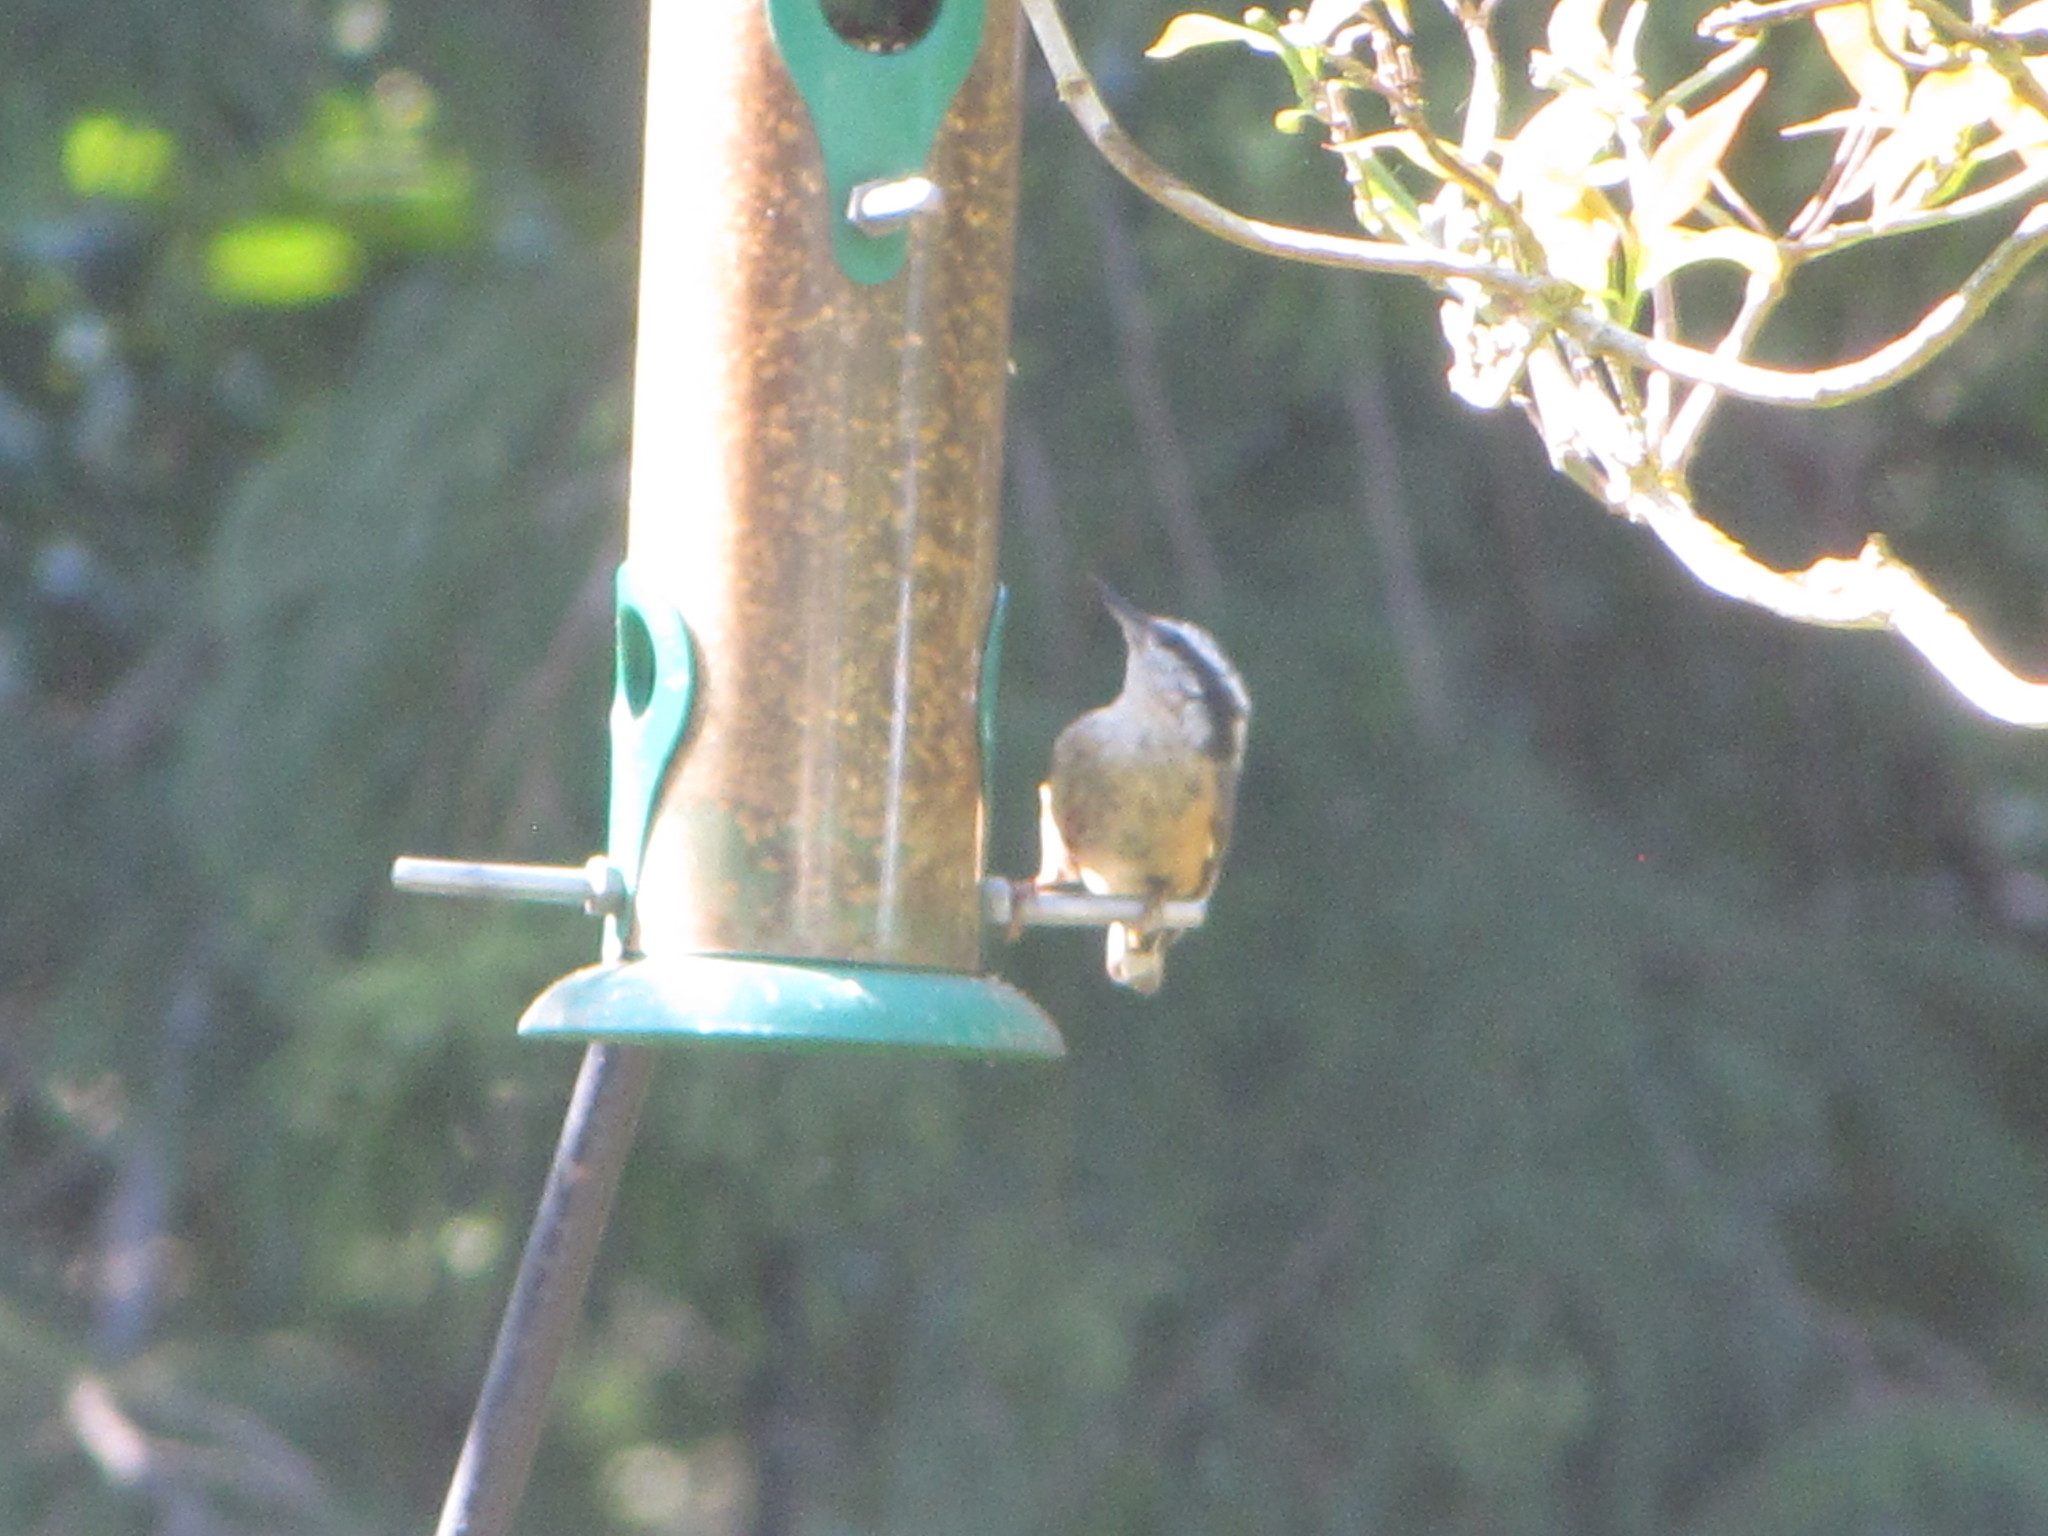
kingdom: Animalia
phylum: Chordata
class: Aves
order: Passeriformes
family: Sittidae
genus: Sitta
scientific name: Sitta canadensis
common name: Red-breasted nuthatch
